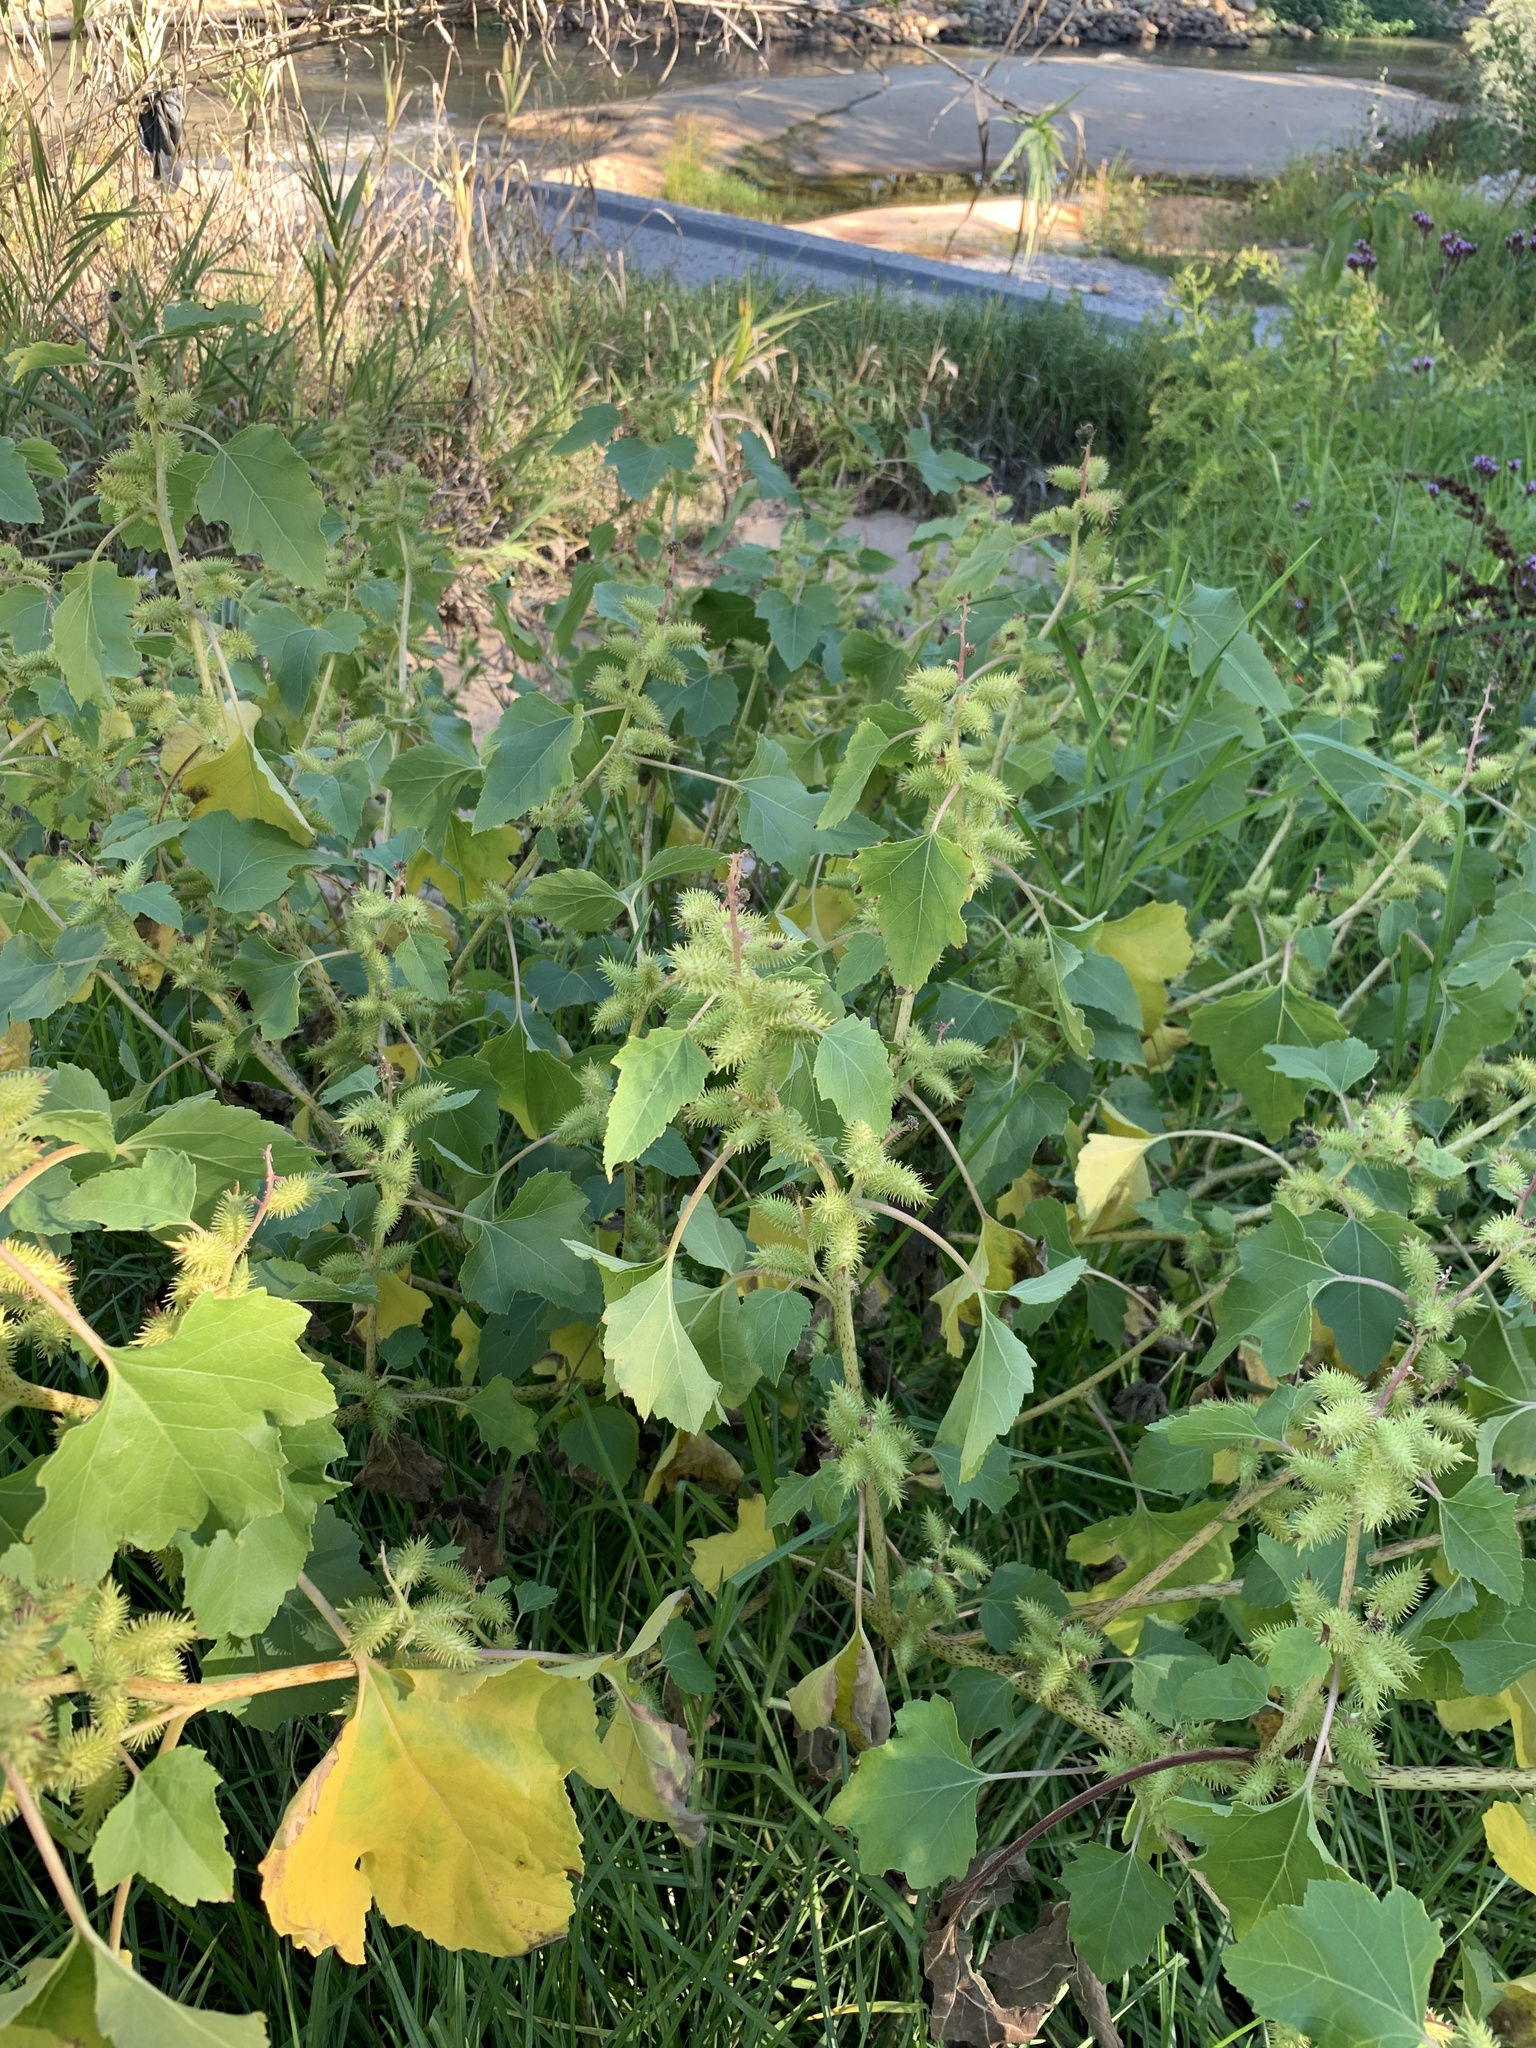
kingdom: Plantae
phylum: Tracheophyta
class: Magnoliopsida
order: Asterales
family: Asteraceae
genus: Xanthium
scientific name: Xanthium strumarium
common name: Rough cocklebur
